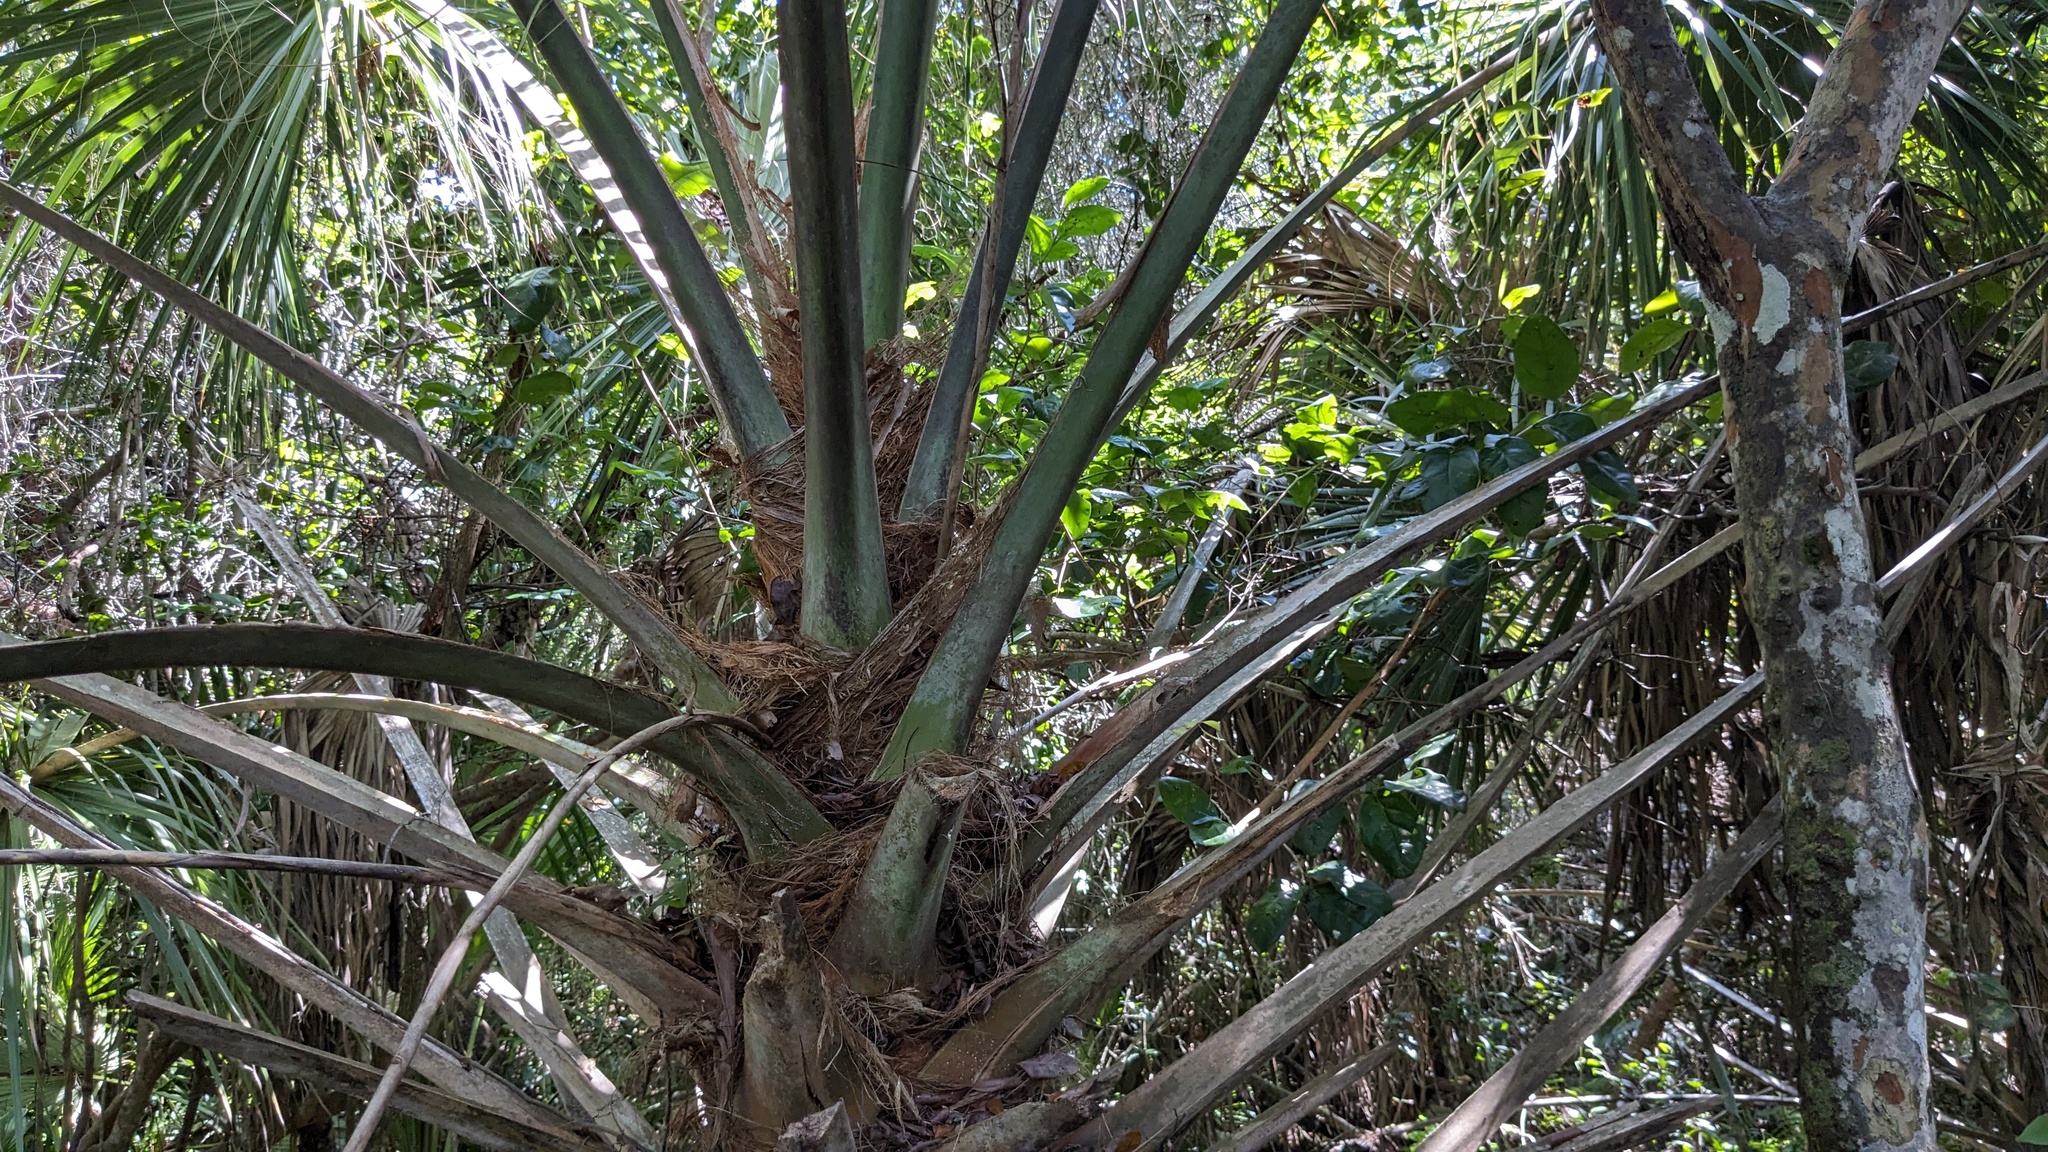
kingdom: Plantae
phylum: Tracheophyta
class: Liliopsida
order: Arecales
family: Arecaceae
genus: Sabal
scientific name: Sabal palmetto
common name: Blue palmetto
